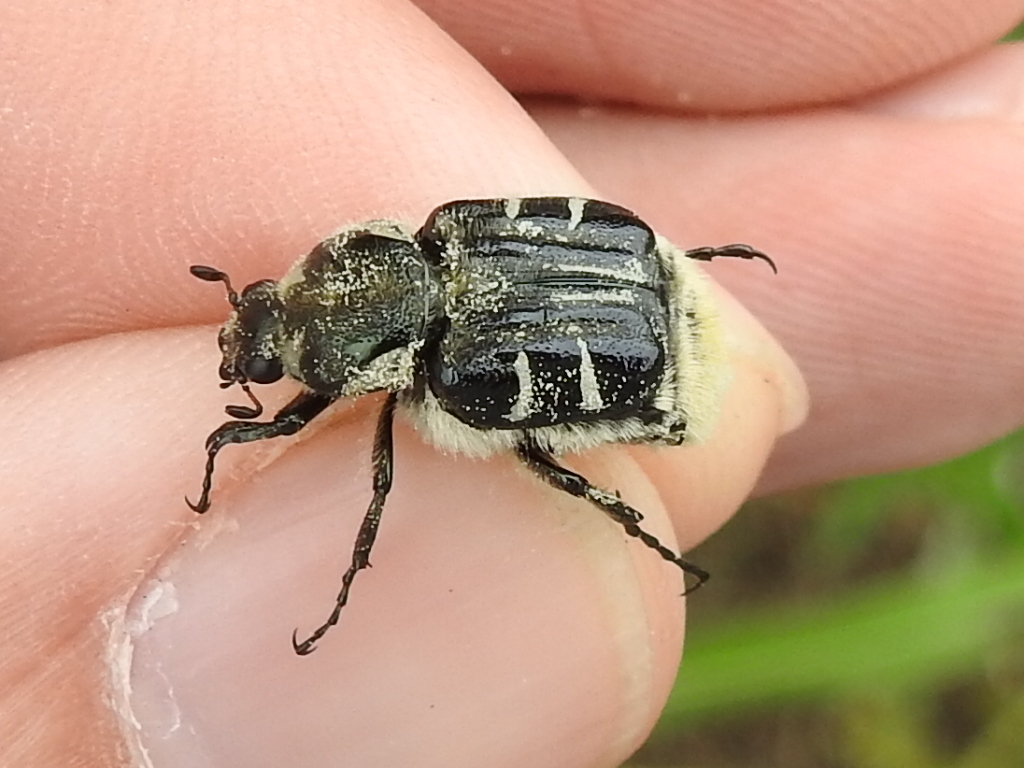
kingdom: Animalia
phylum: Arthropoda
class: Insecta
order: Coleoptera
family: Scarabaeidae
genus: Trichiotinus
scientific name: Trichiotinus texanus
